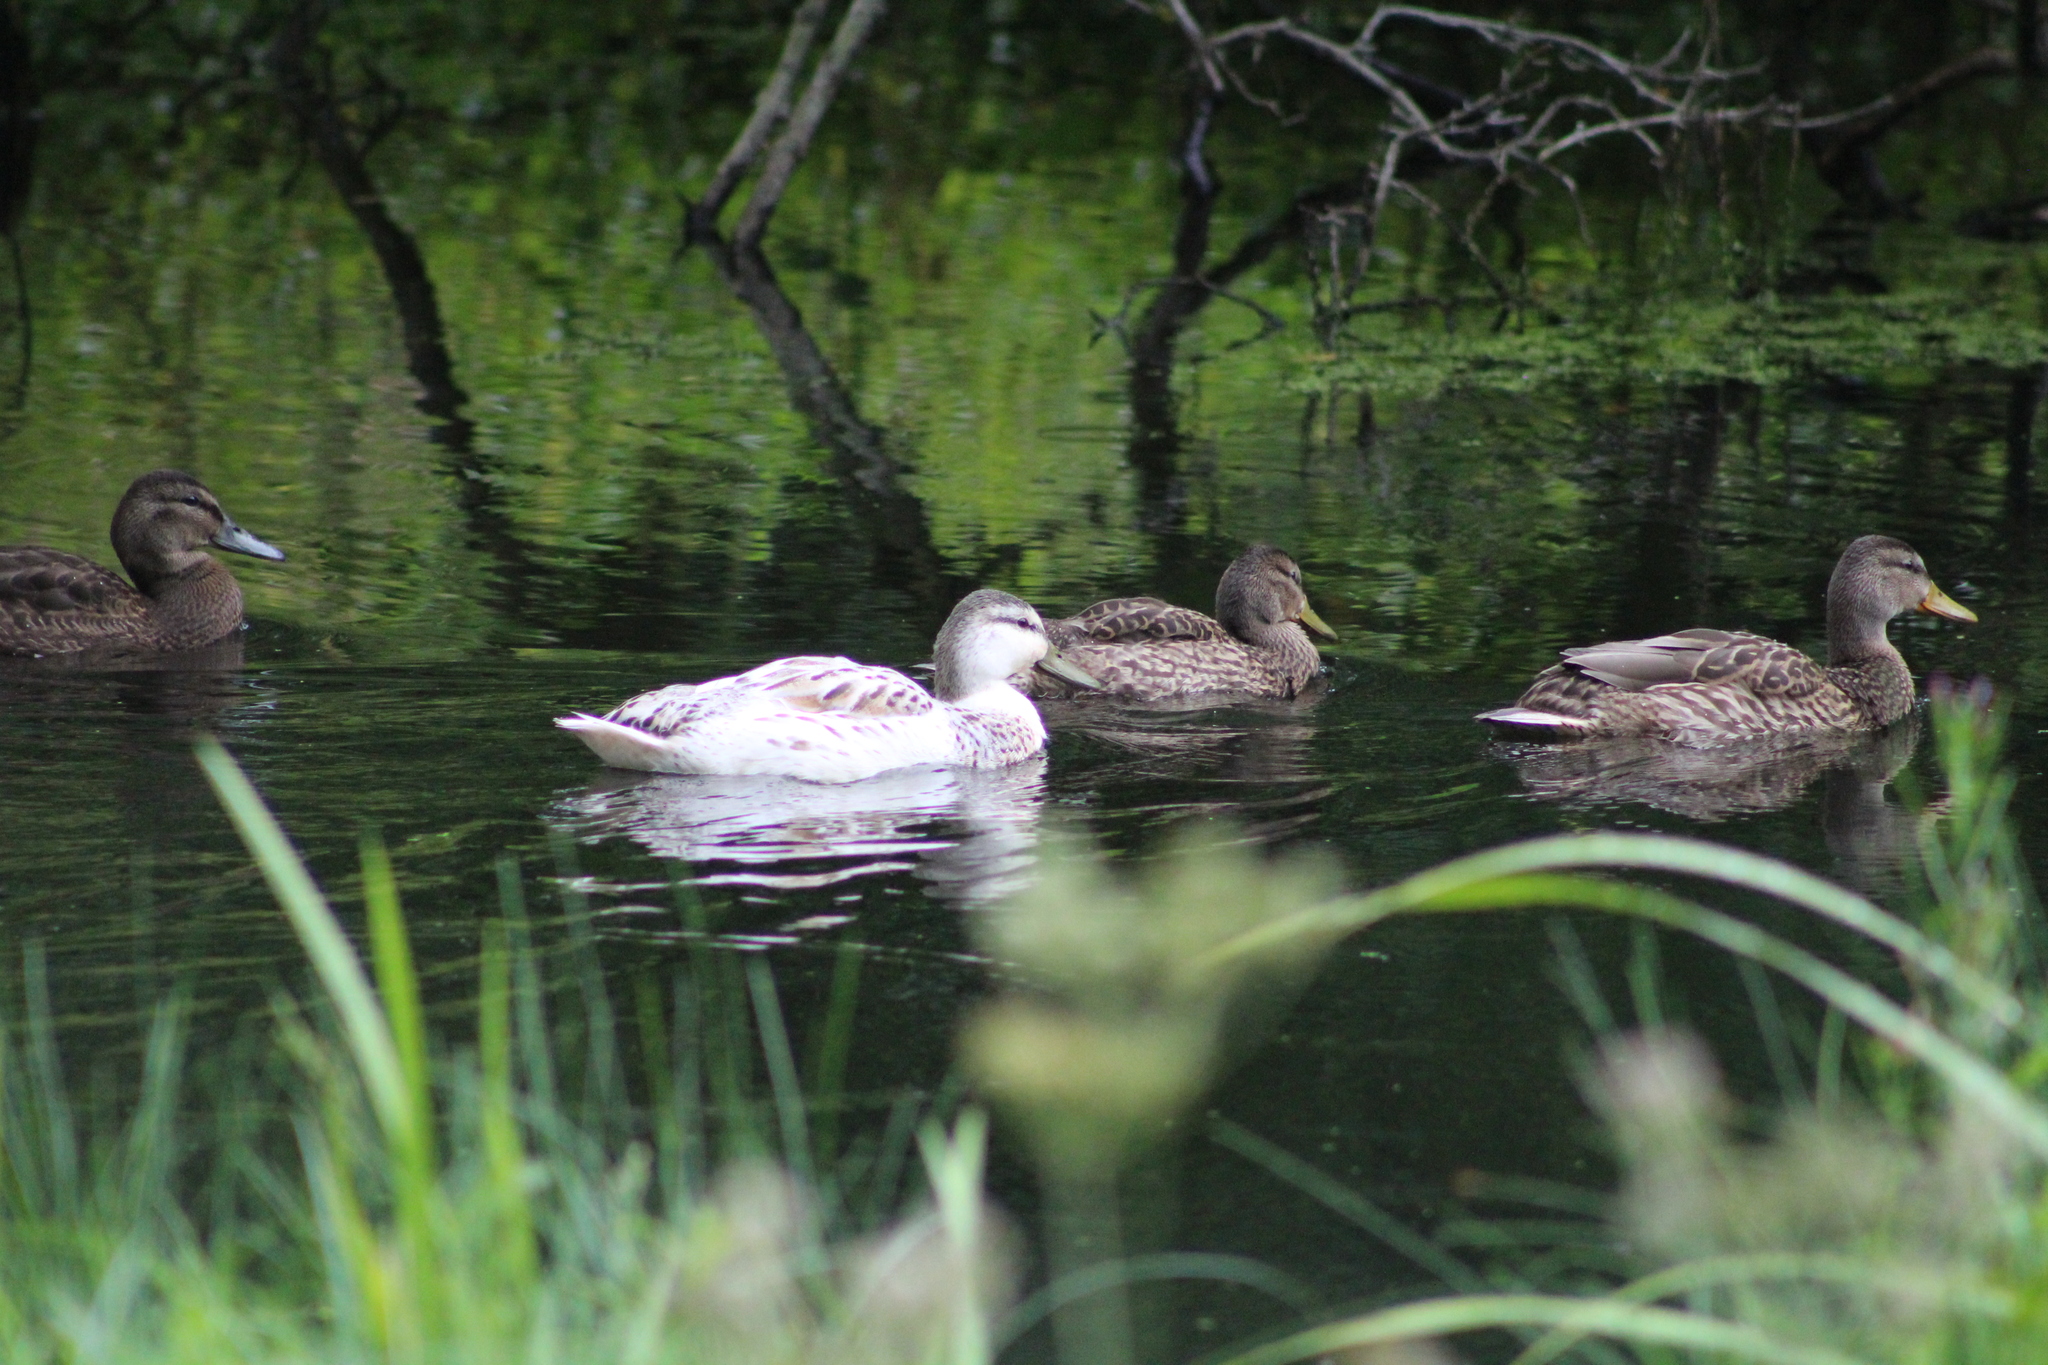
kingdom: Animalia
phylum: Chordata
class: Aves
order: Anseriformes
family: Anatidae
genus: Anas
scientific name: Anas platyrhynchos
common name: Mallard
